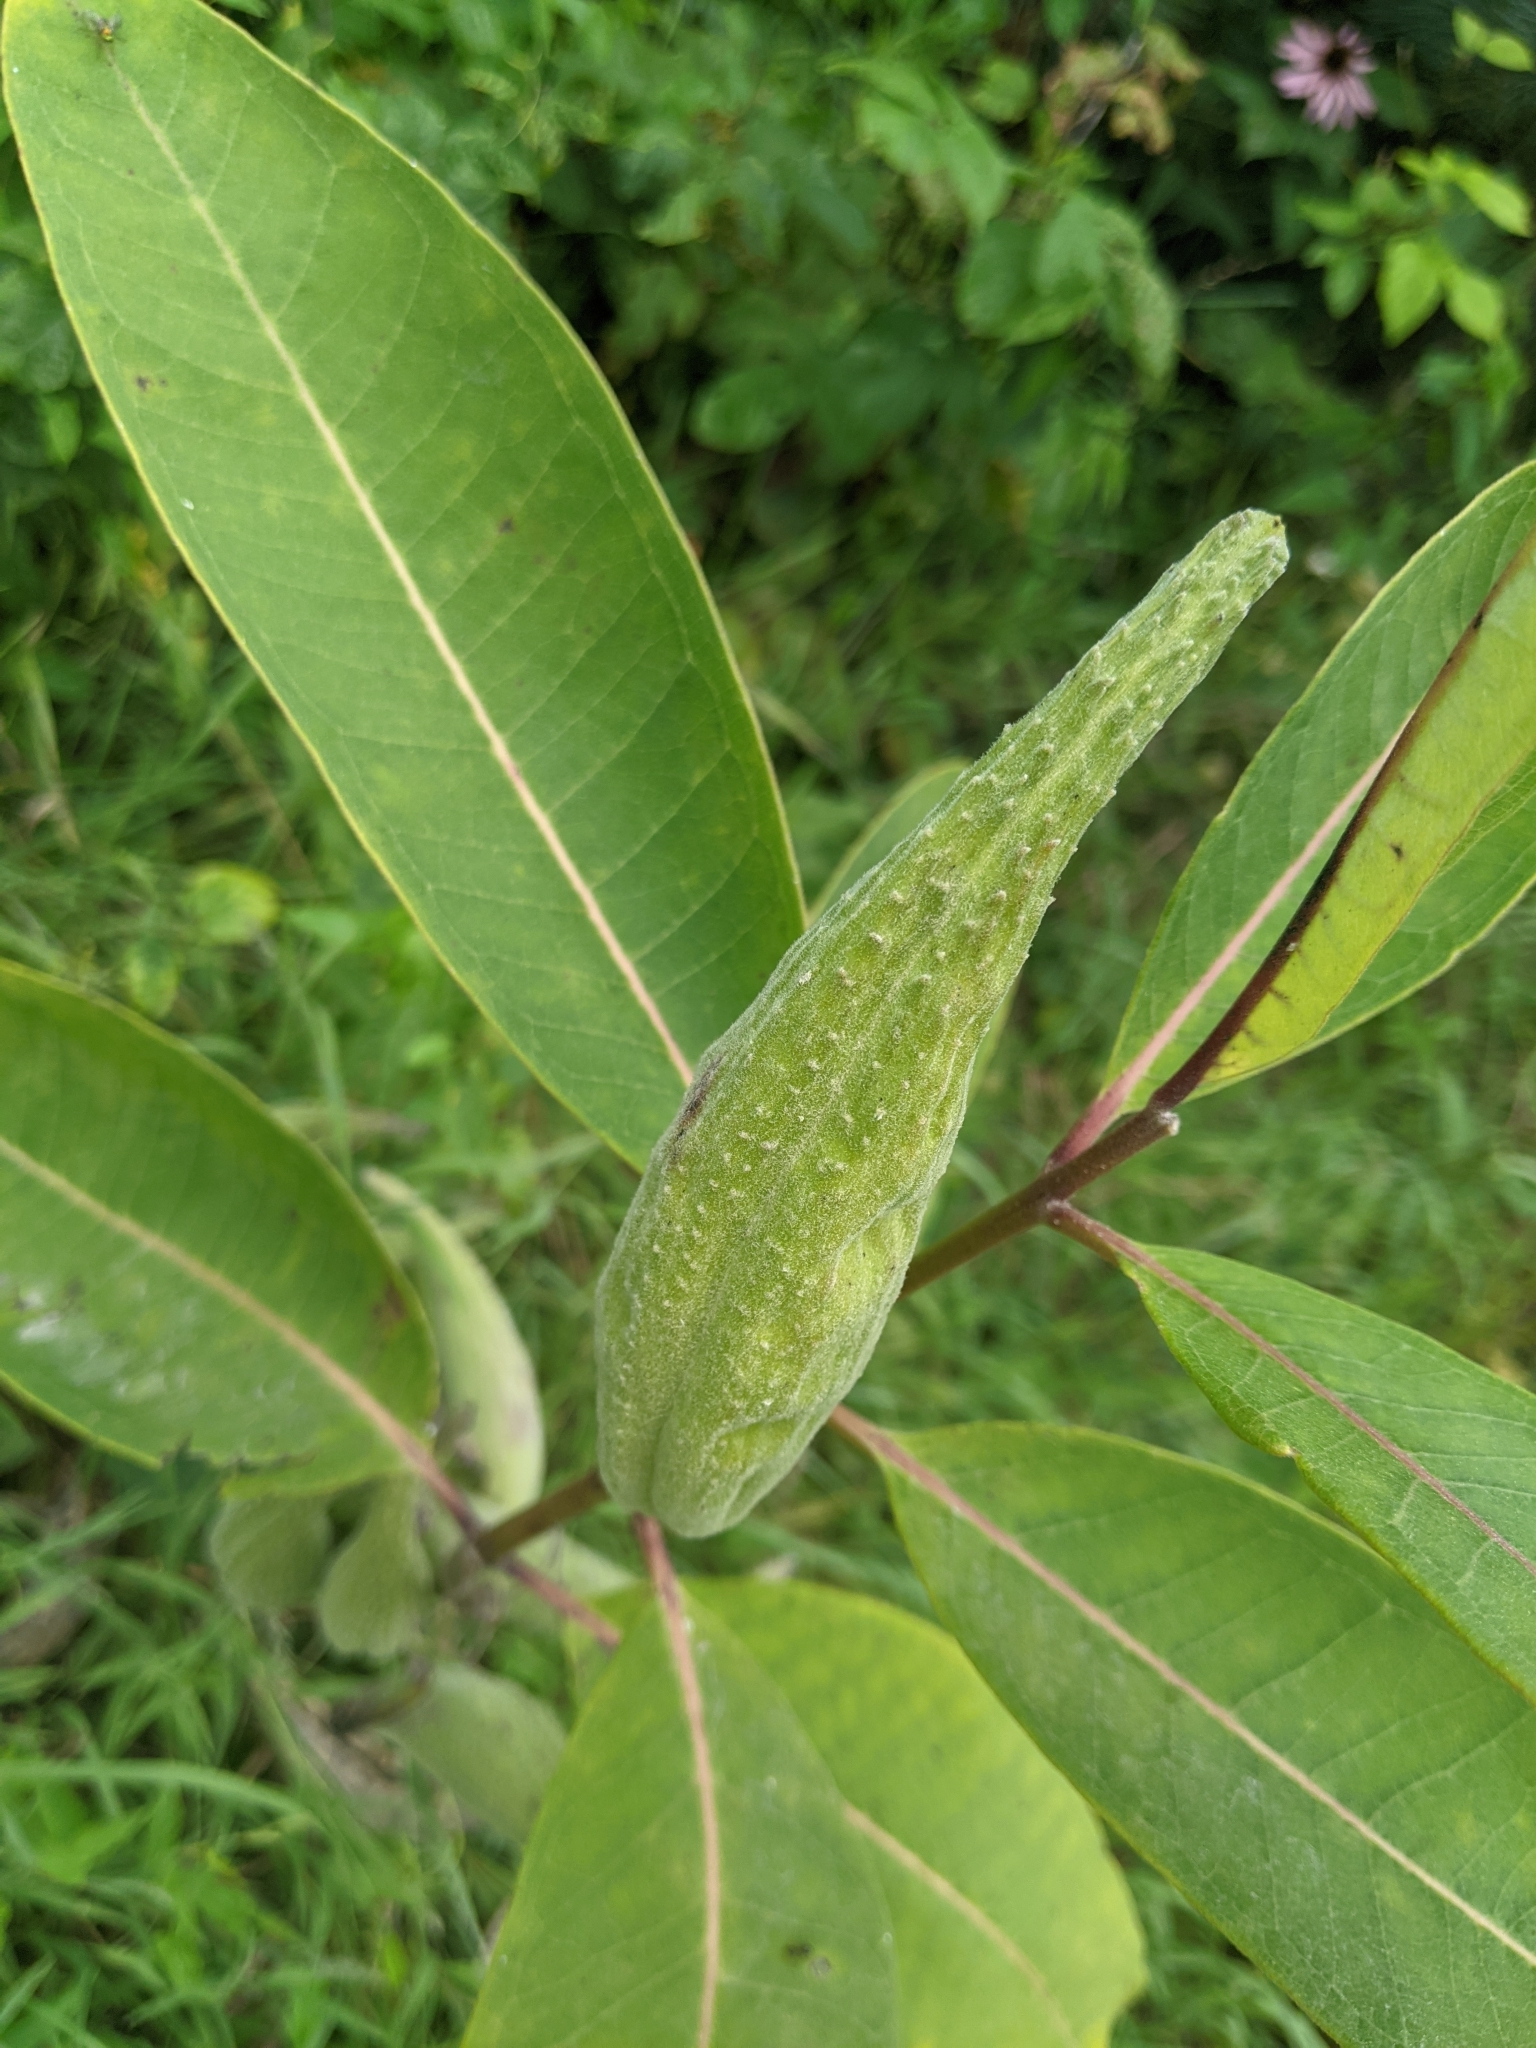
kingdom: Plantae
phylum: Tracheophyta
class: Magnoliopsida
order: Gentianales
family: Apocynaceae
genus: Asclepias
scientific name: Asclepias syriaca
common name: Common milkweed
